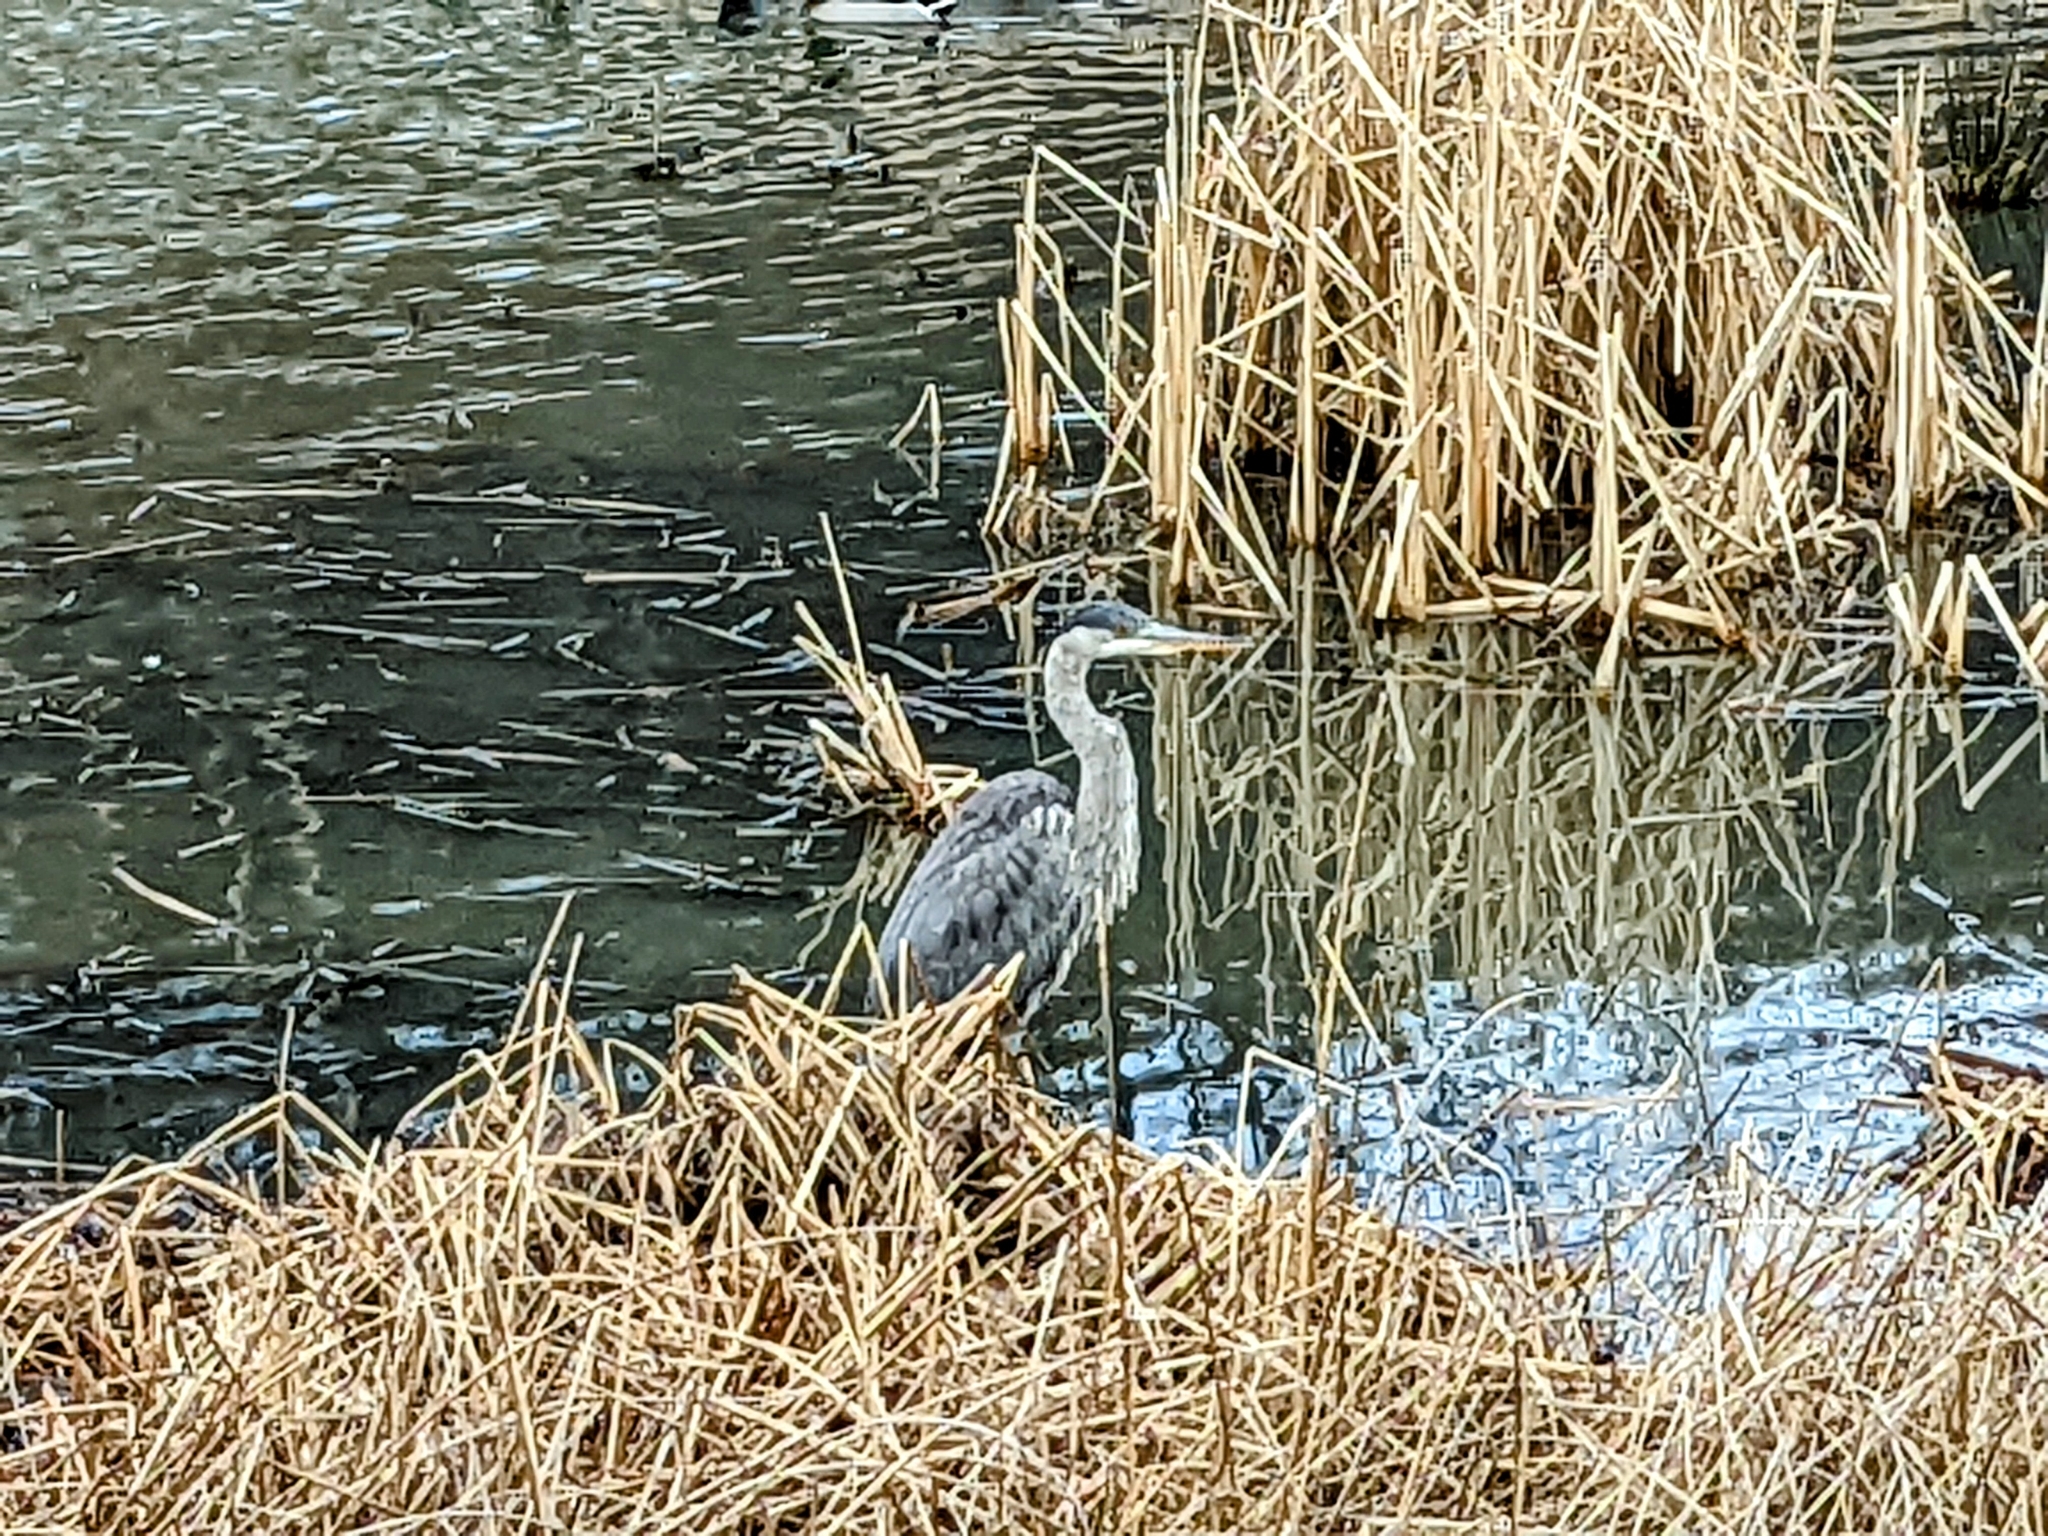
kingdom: Animalia
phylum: Chordata
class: Aves
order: Pelecaniformes
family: Ardeidae
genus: Ardea
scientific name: Ardea herodias
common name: Great blue heron
